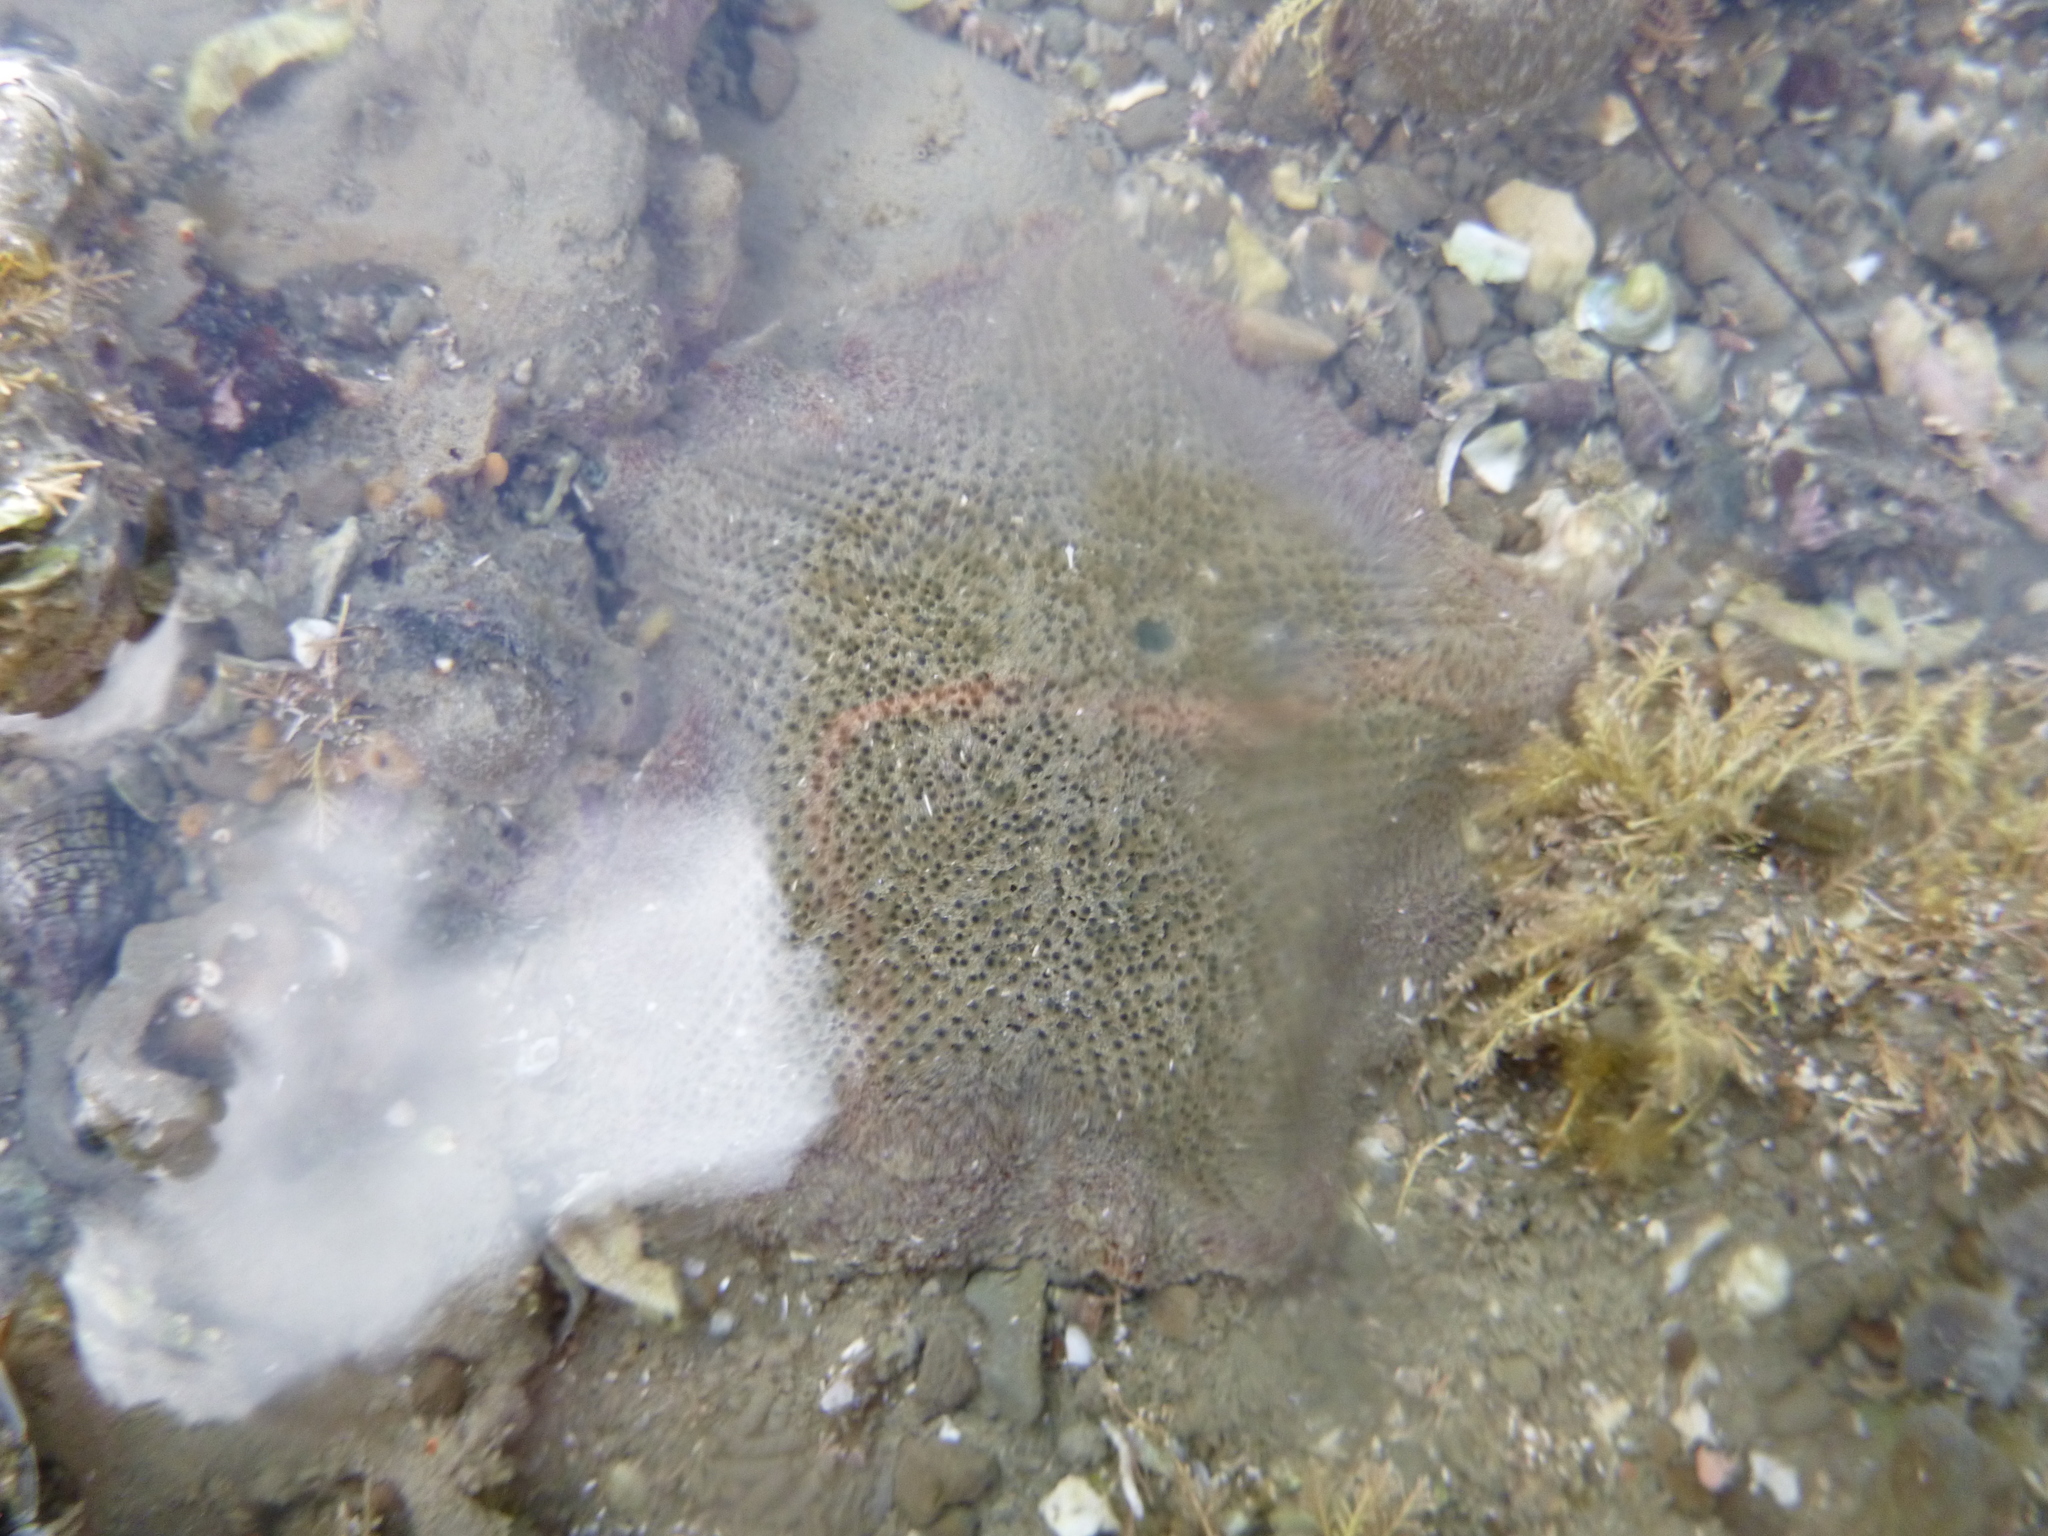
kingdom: Animalia
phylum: Echinodermata
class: Asteroidea
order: Valvatida
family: Asterinidae
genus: Patiriella
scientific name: Patiriella regularis
